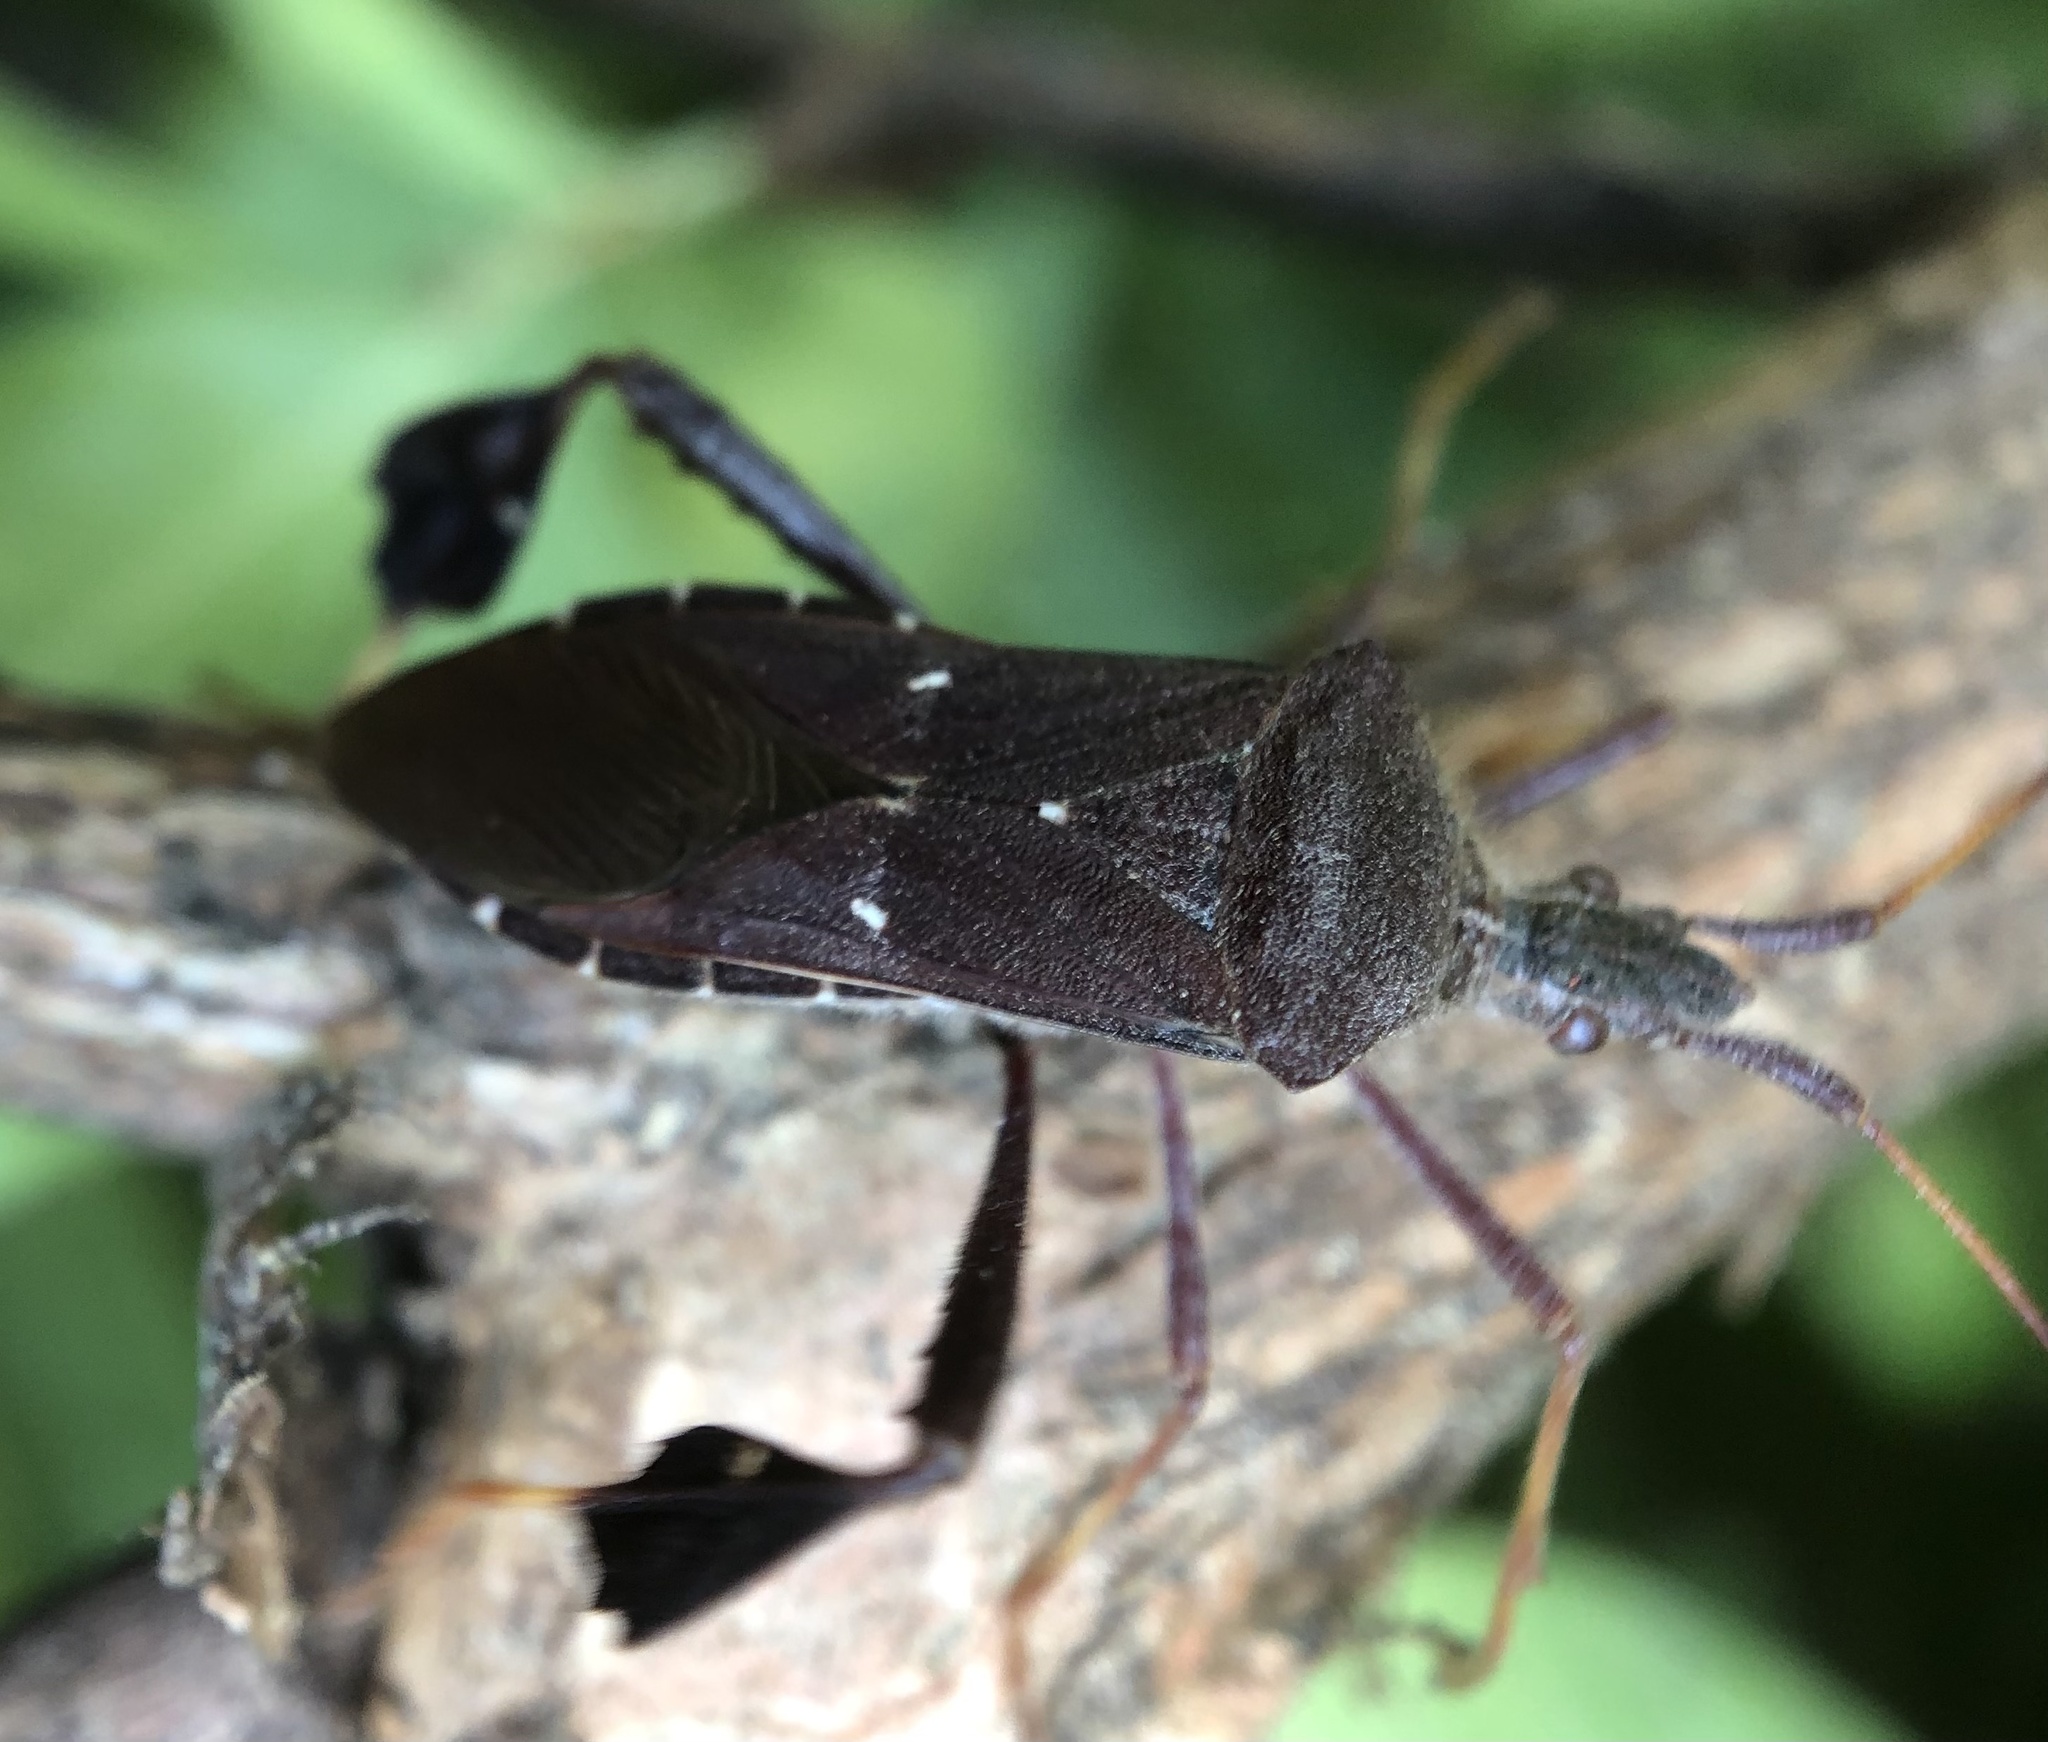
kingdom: Animalia
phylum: Arthropoda
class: Insecta
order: Hemiptera
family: Coreidae
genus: Leptoglossus
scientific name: Leptoglossus oppositus
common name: Northern leaf-footed bug
